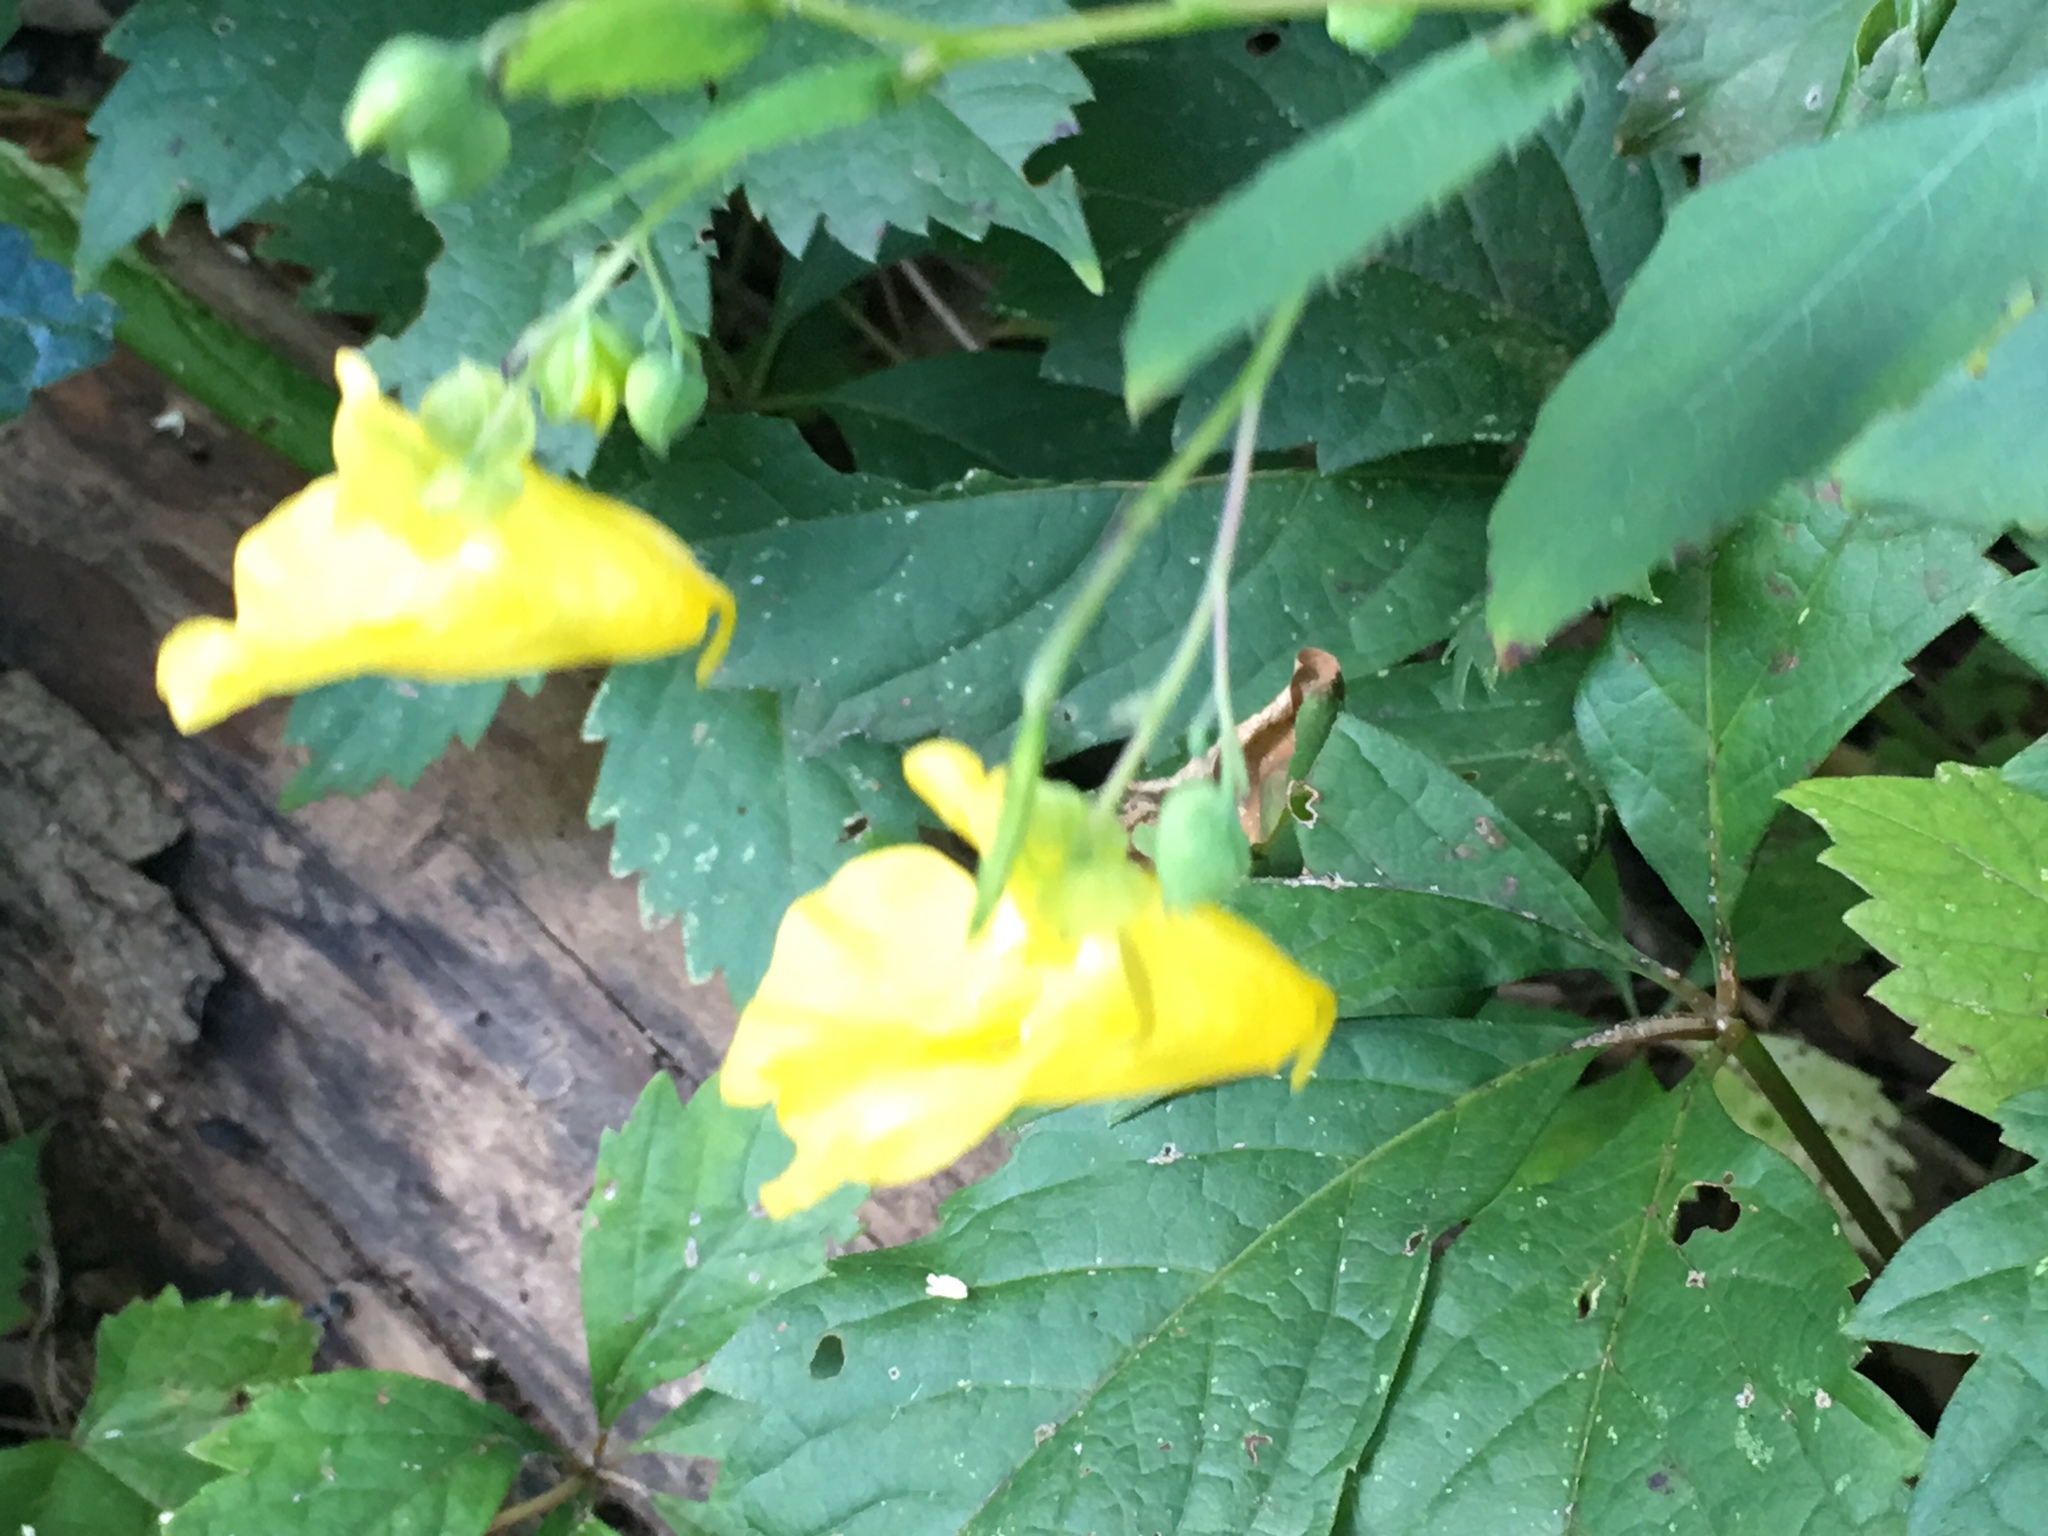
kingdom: Plantae
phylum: Tracheophyta
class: Magnoliopsida
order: Ericales
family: Balsaminaceae
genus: Impatiens
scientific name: Impatiens pallida
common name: Pale snapweed
